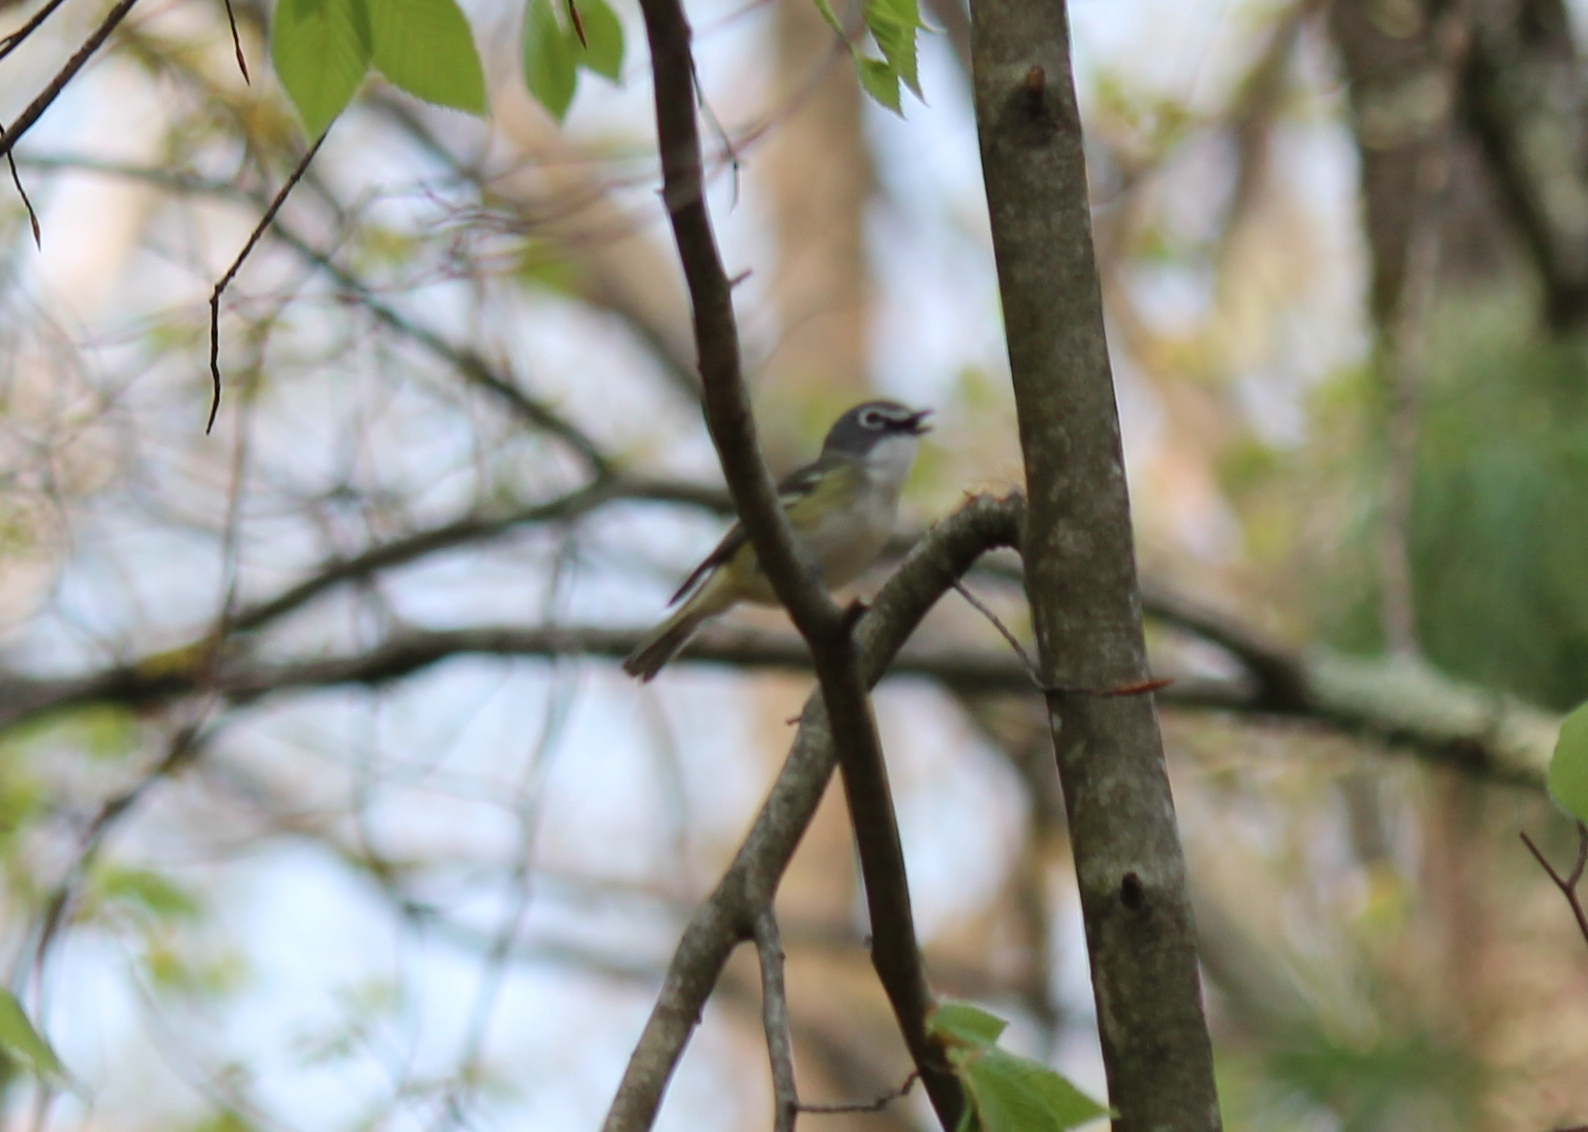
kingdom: Animalia
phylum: Chordata
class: Aves
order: Passeriformes
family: Vireonidae
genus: Vireo
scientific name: Vireo solitarius
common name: Blue-headed vireo
